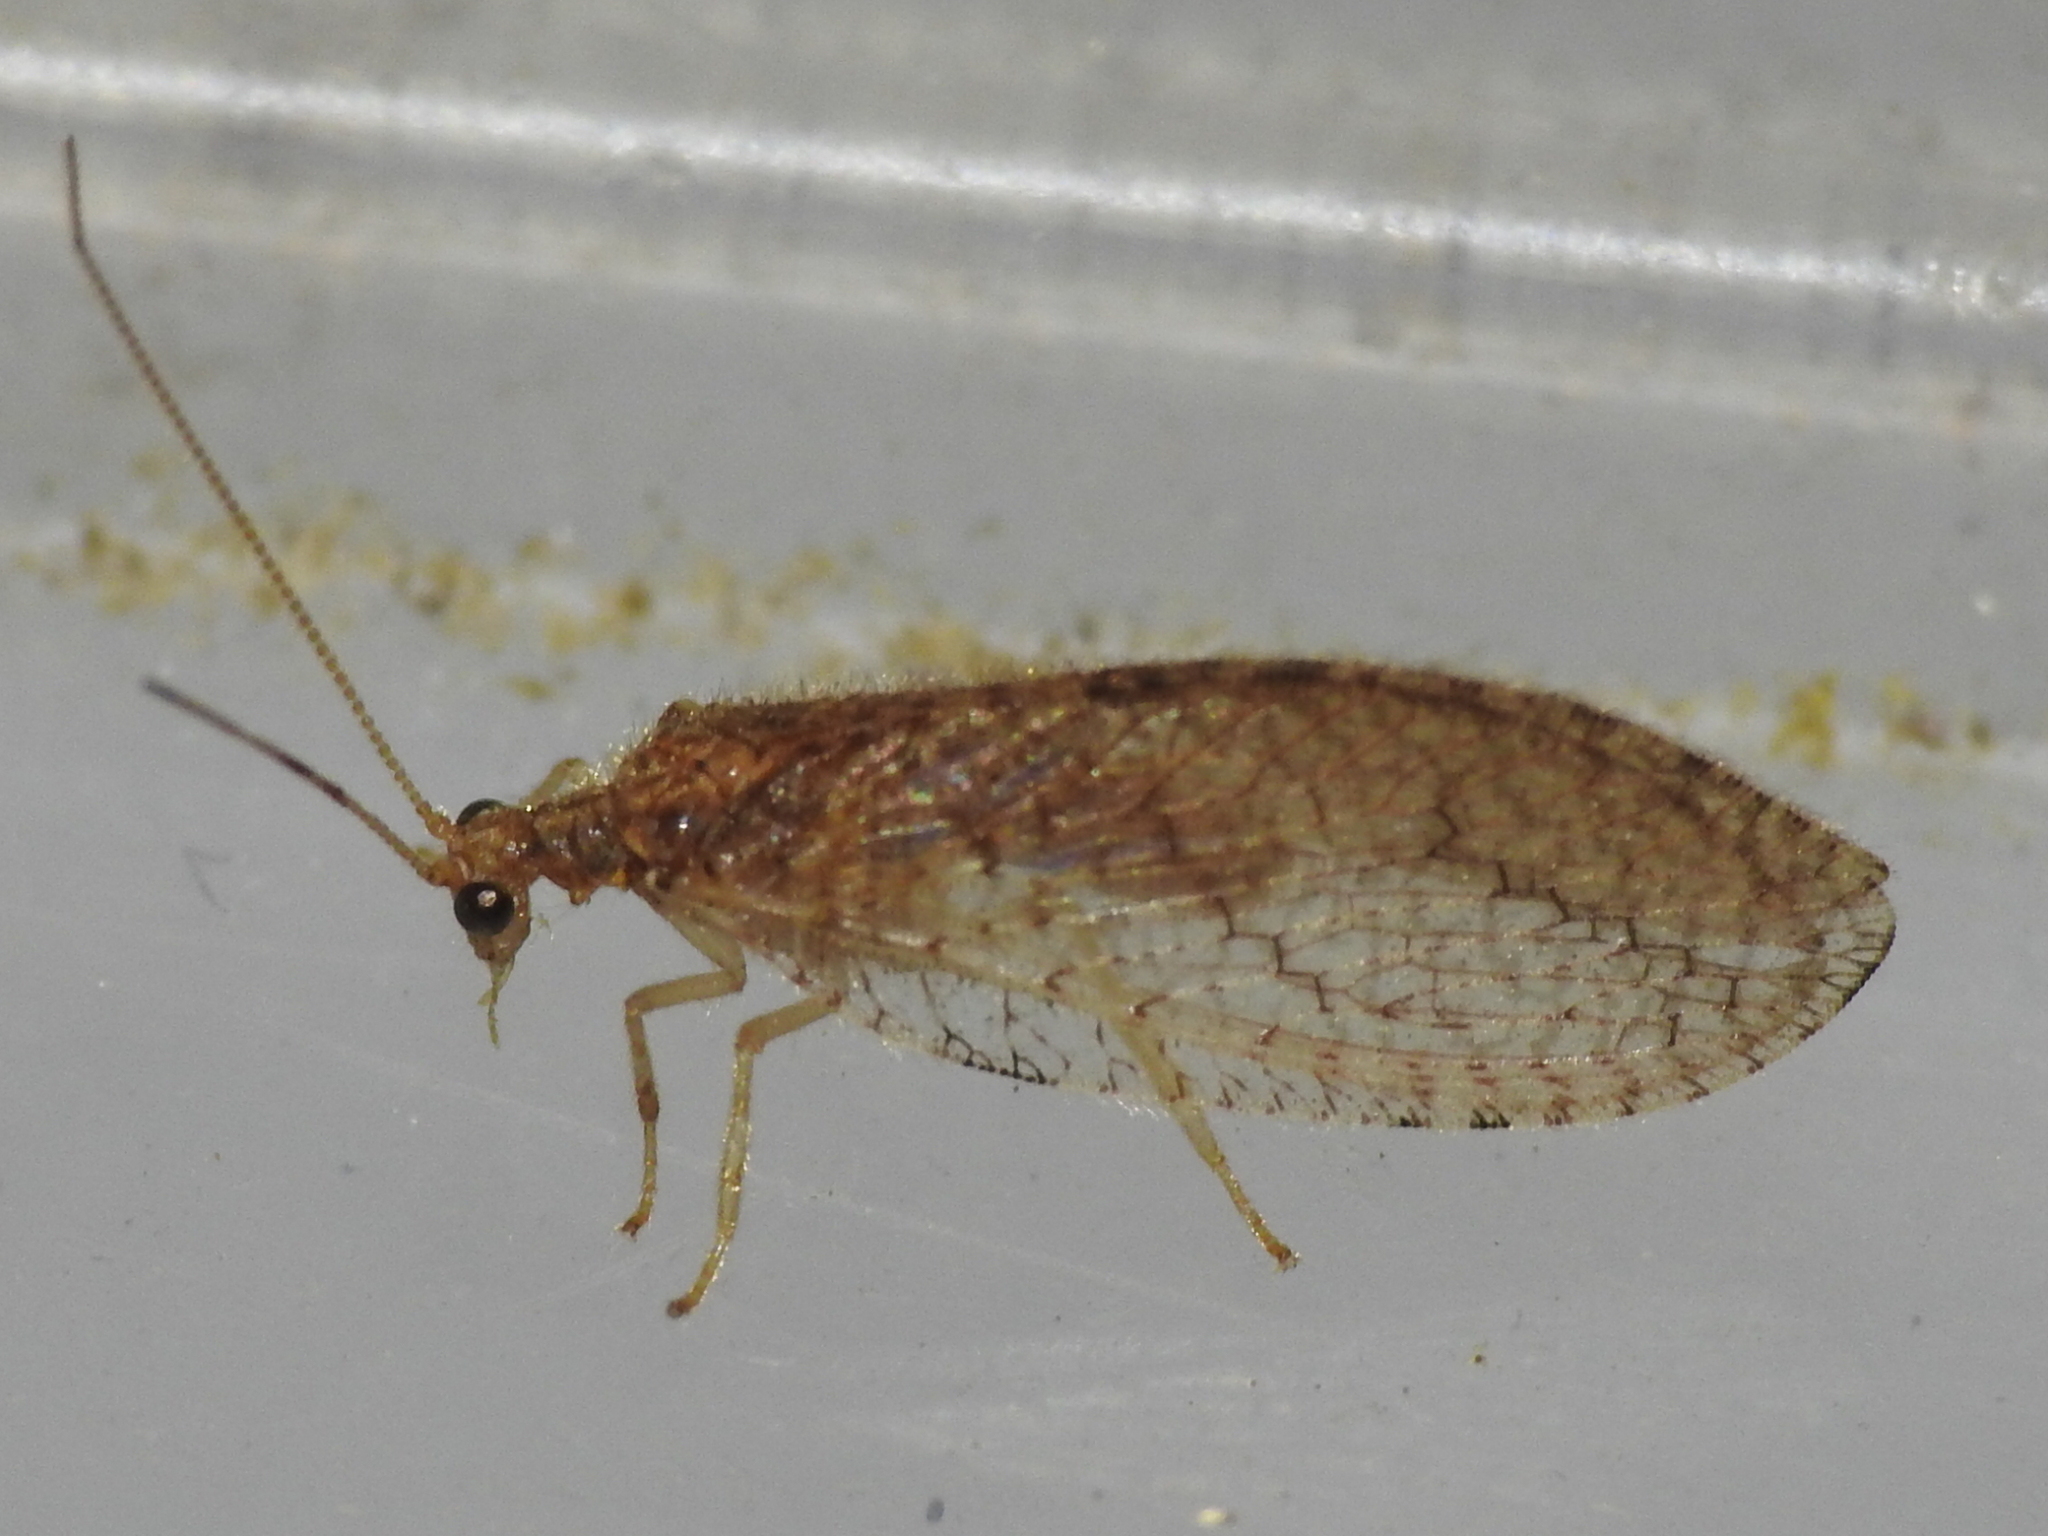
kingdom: Animalia
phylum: Arthropoda
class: Insecta
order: Neuroptera
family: Hemerobiidae
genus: Micromus
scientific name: Micromus posticus
